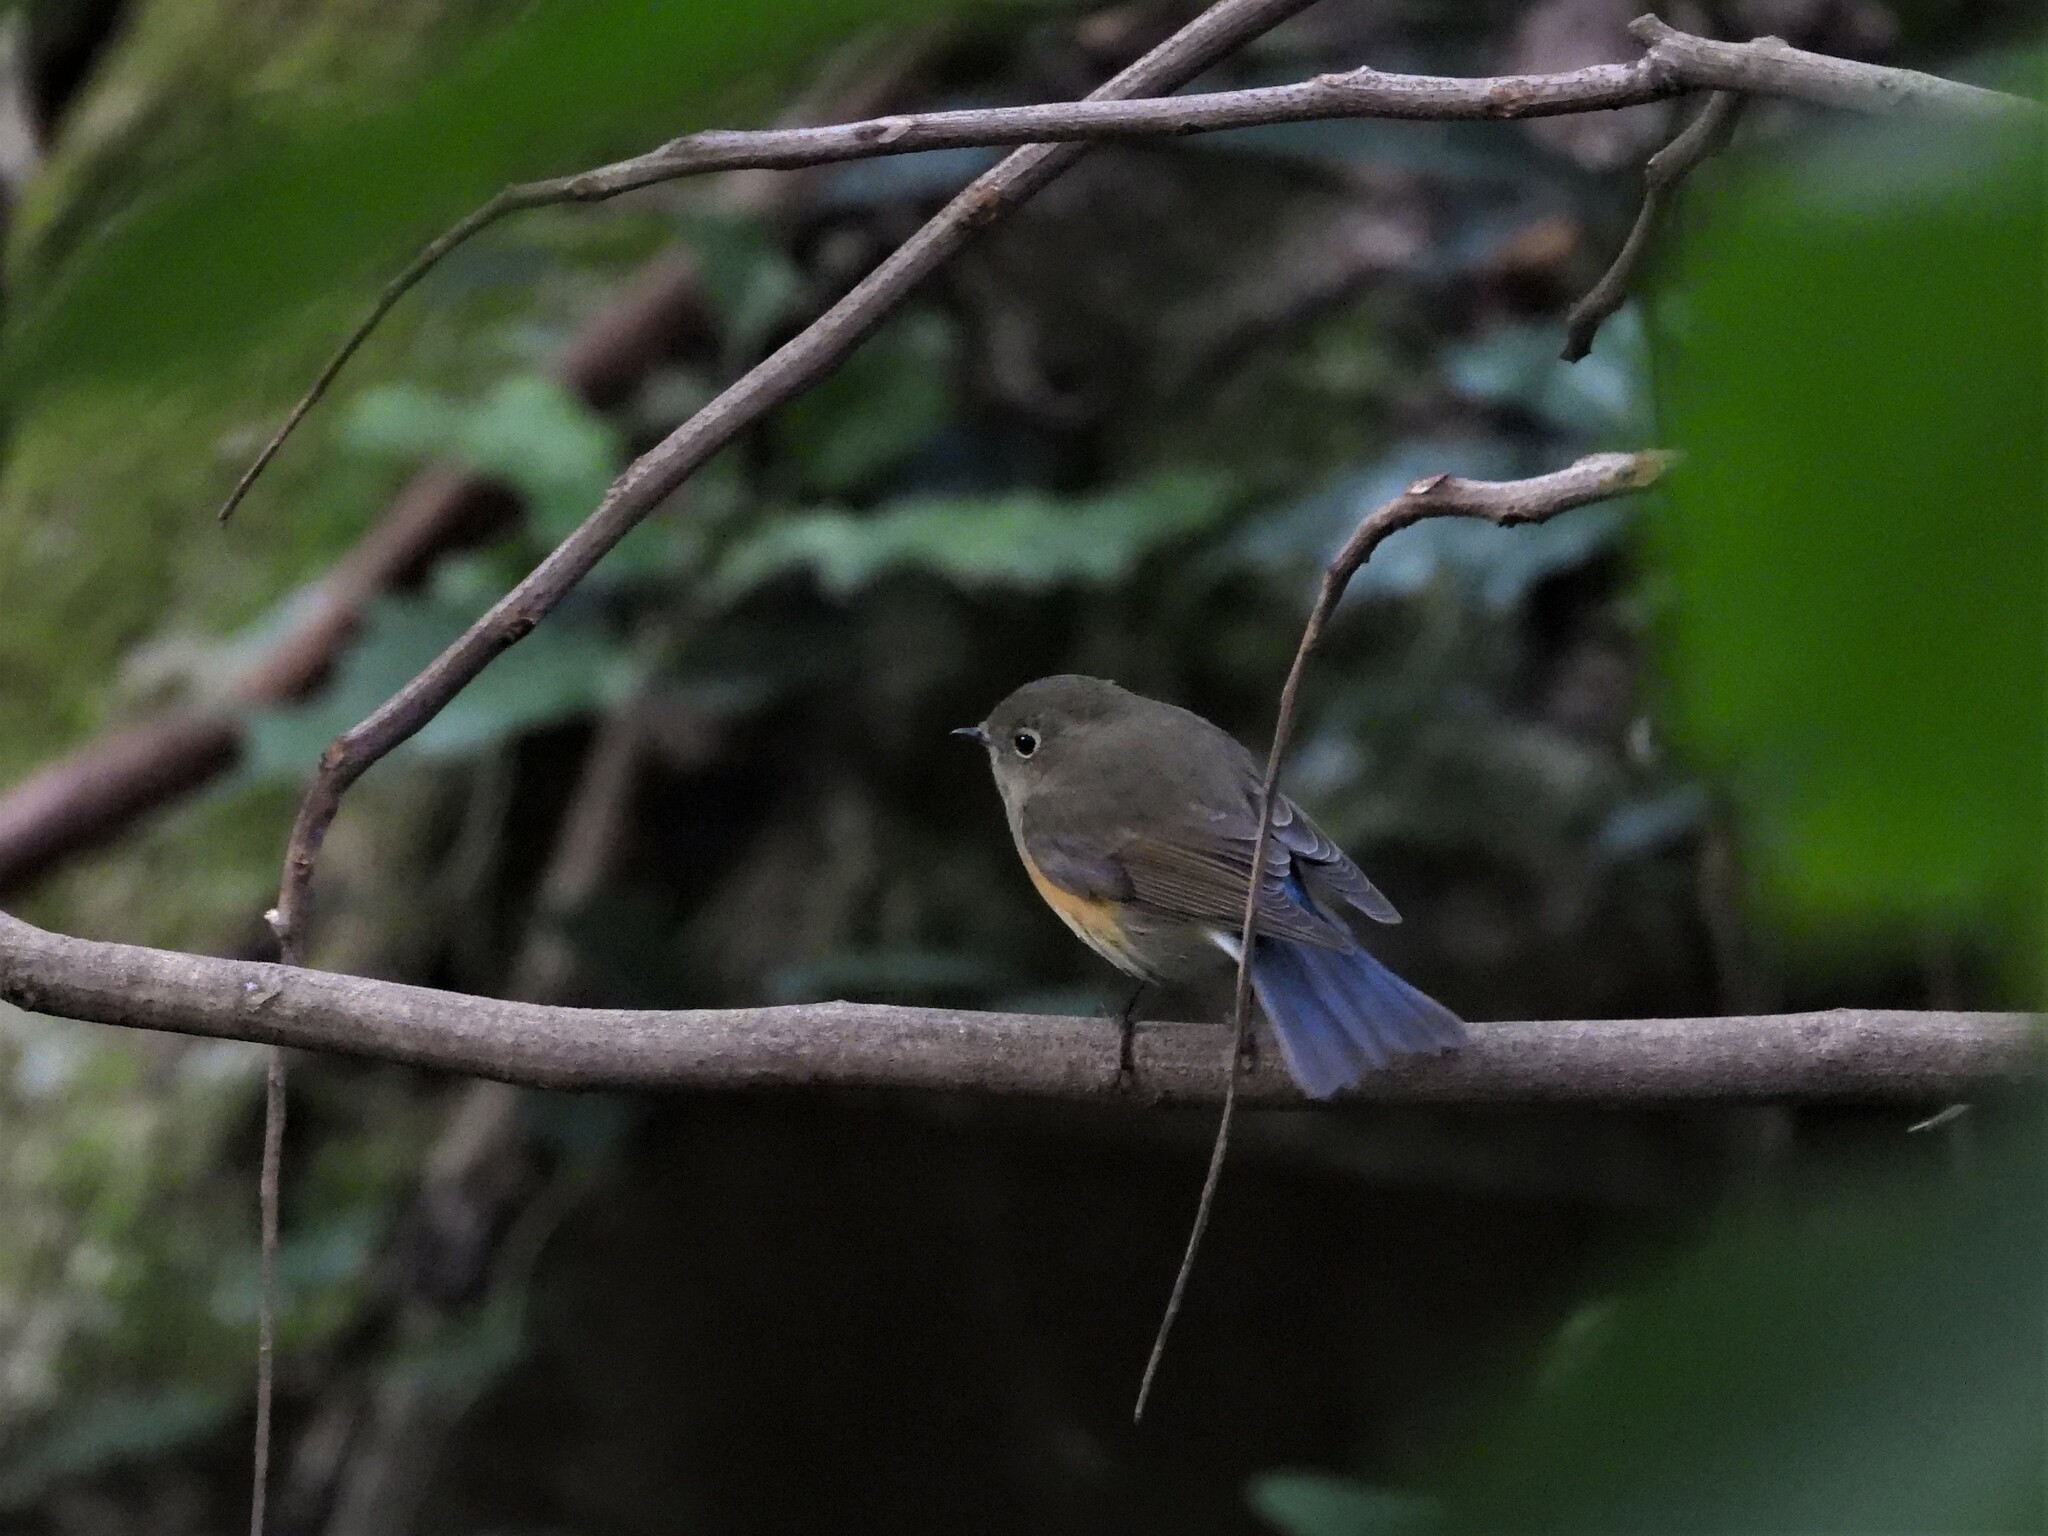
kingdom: Animalia
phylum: Chordata
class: Aves
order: Passeriformes
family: Muscicapidae
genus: Tarsiger
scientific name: Tarsiger cyanurus
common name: Red-flanked bluetail
